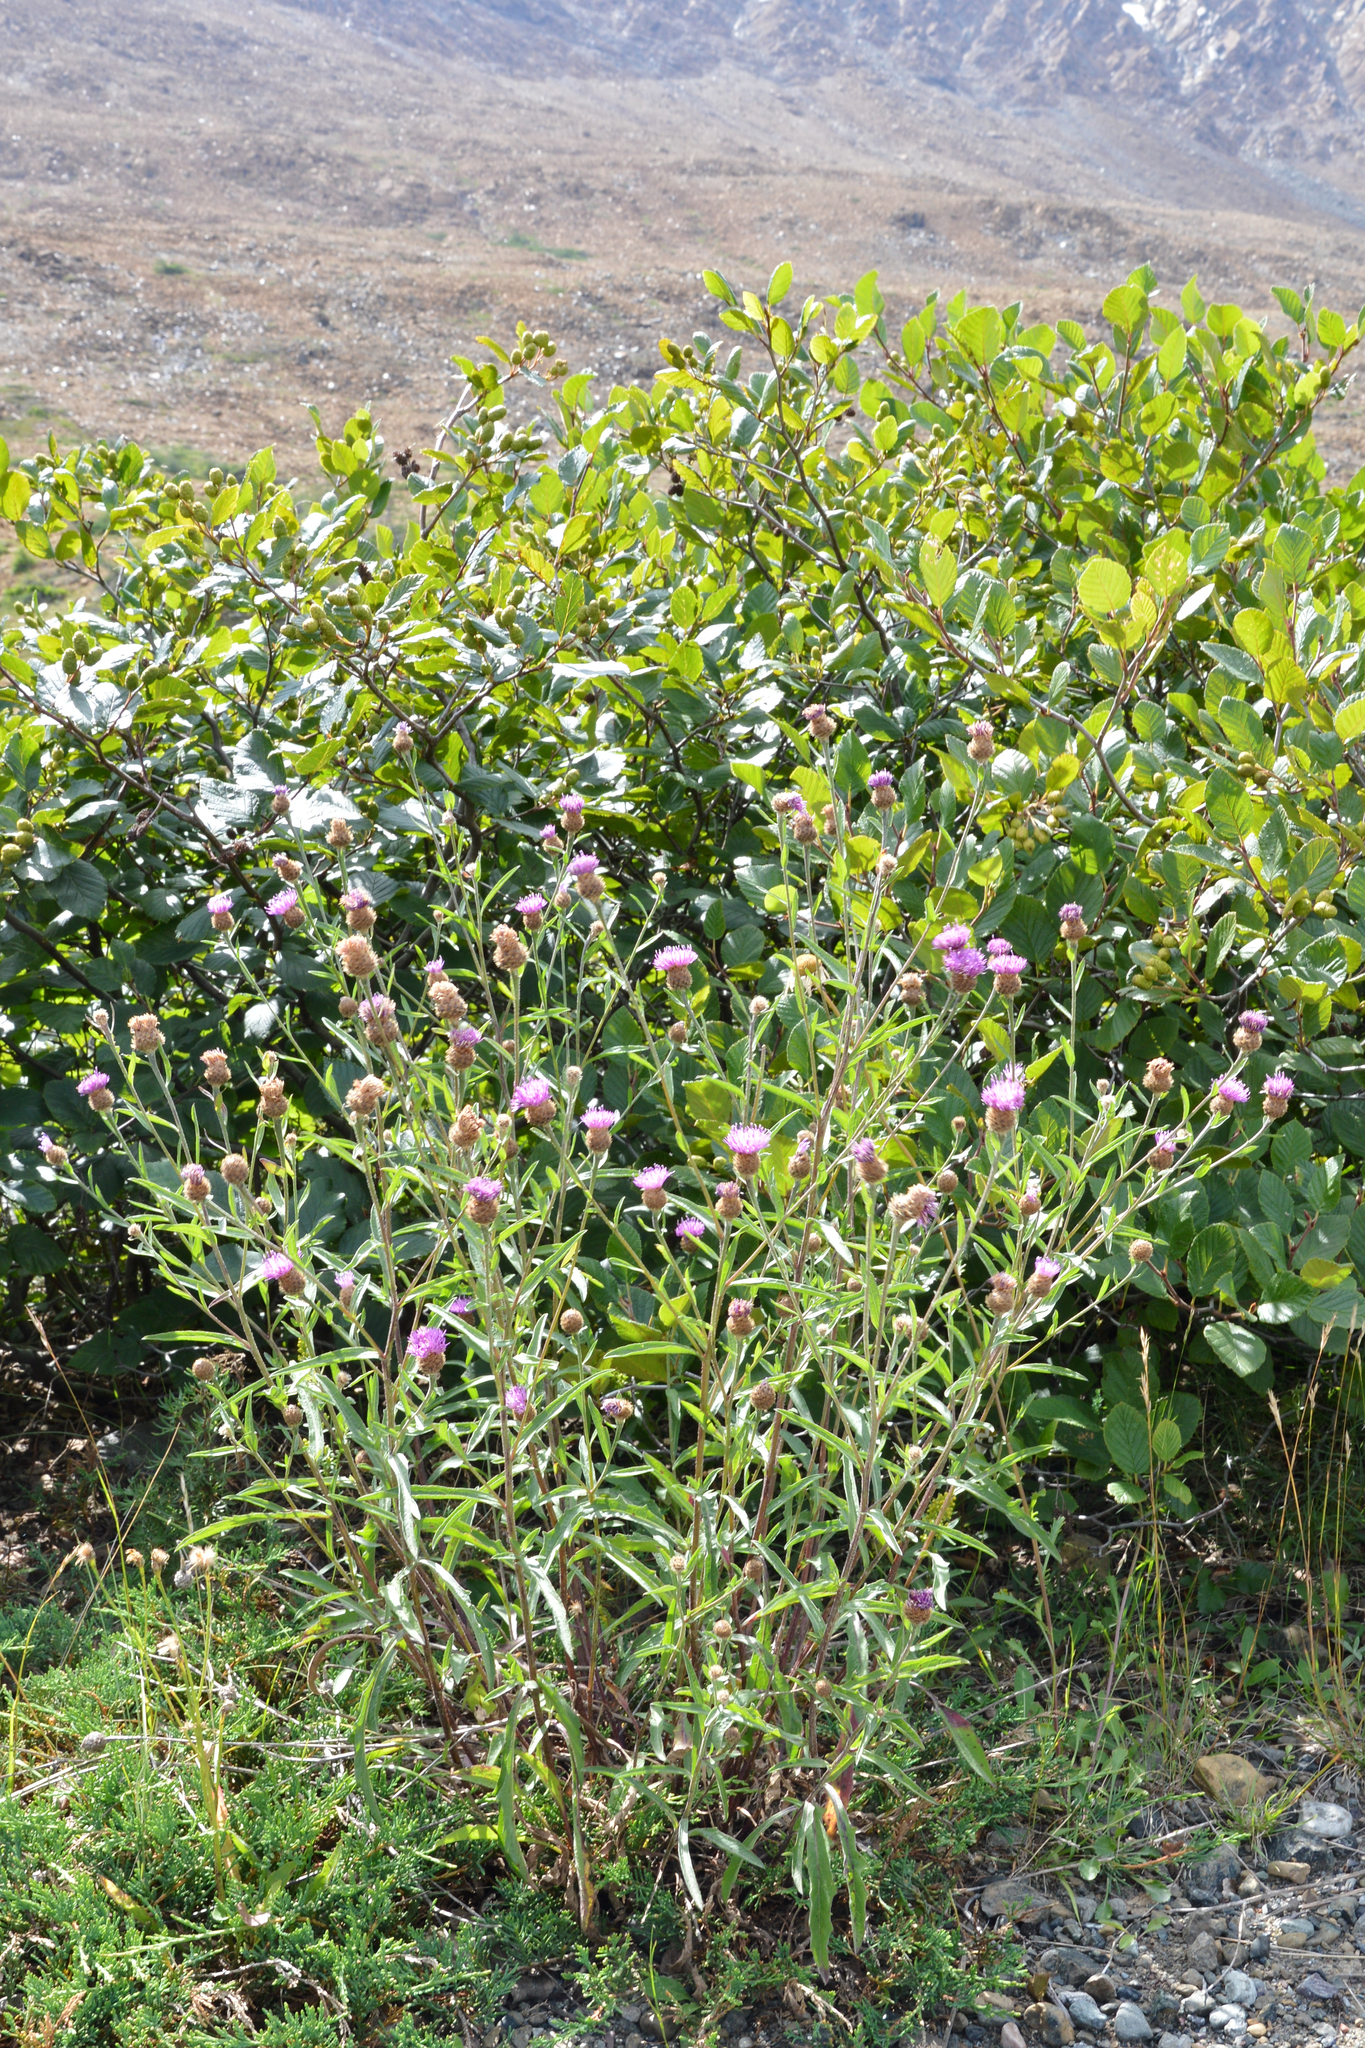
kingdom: Plantae
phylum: Tracheophyta
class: Magnoliopsida
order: Asterales
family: Asteraceae
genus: Centaurea
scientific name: Centaurea nigra
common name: Lesser knapweed
